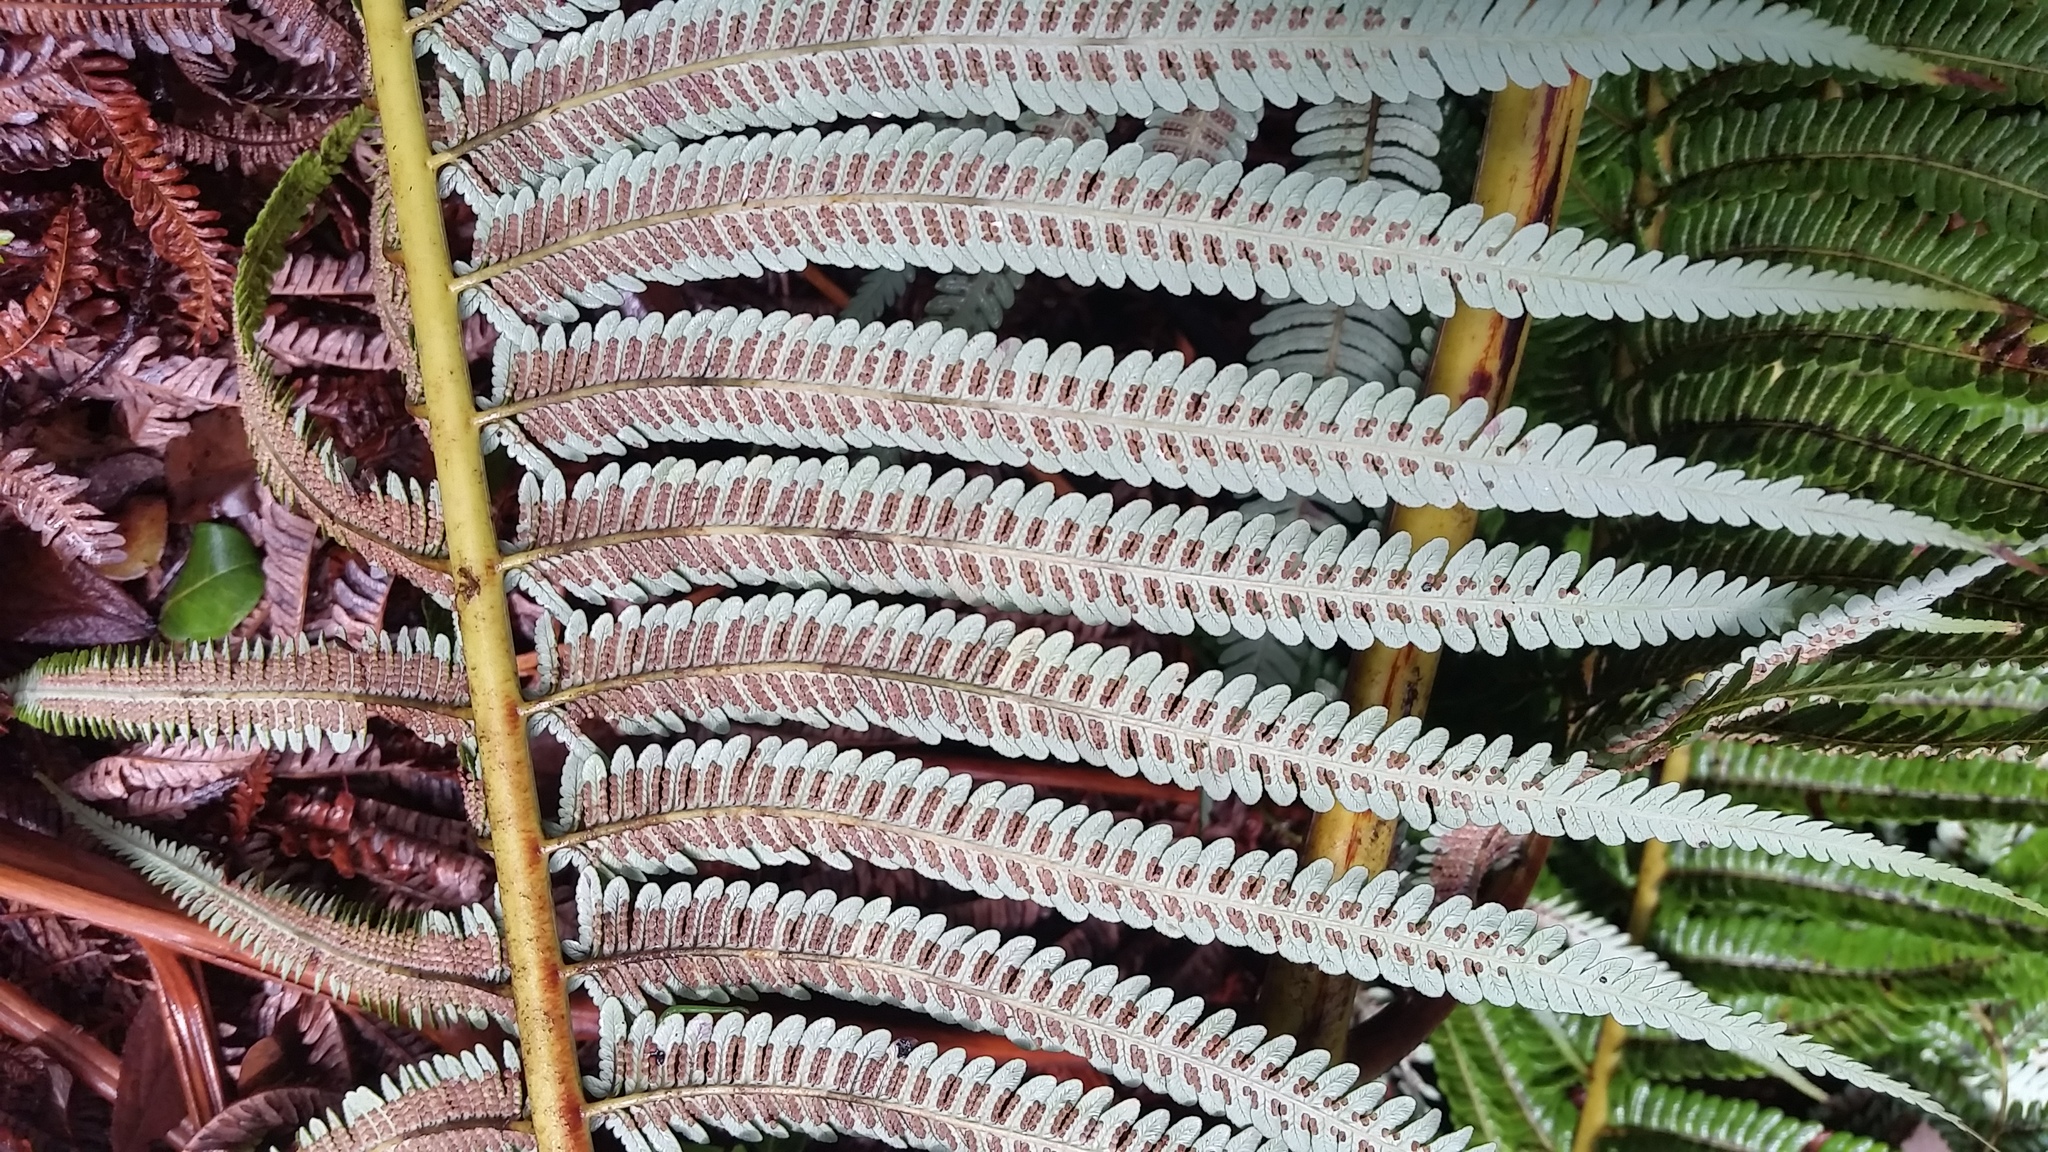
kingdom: Plantae
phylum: Tracheophyta
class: Polypodiopsida
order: Cyatheales
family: Cibotiaceae
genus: Cibotium
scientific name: Cibotium glaucum
